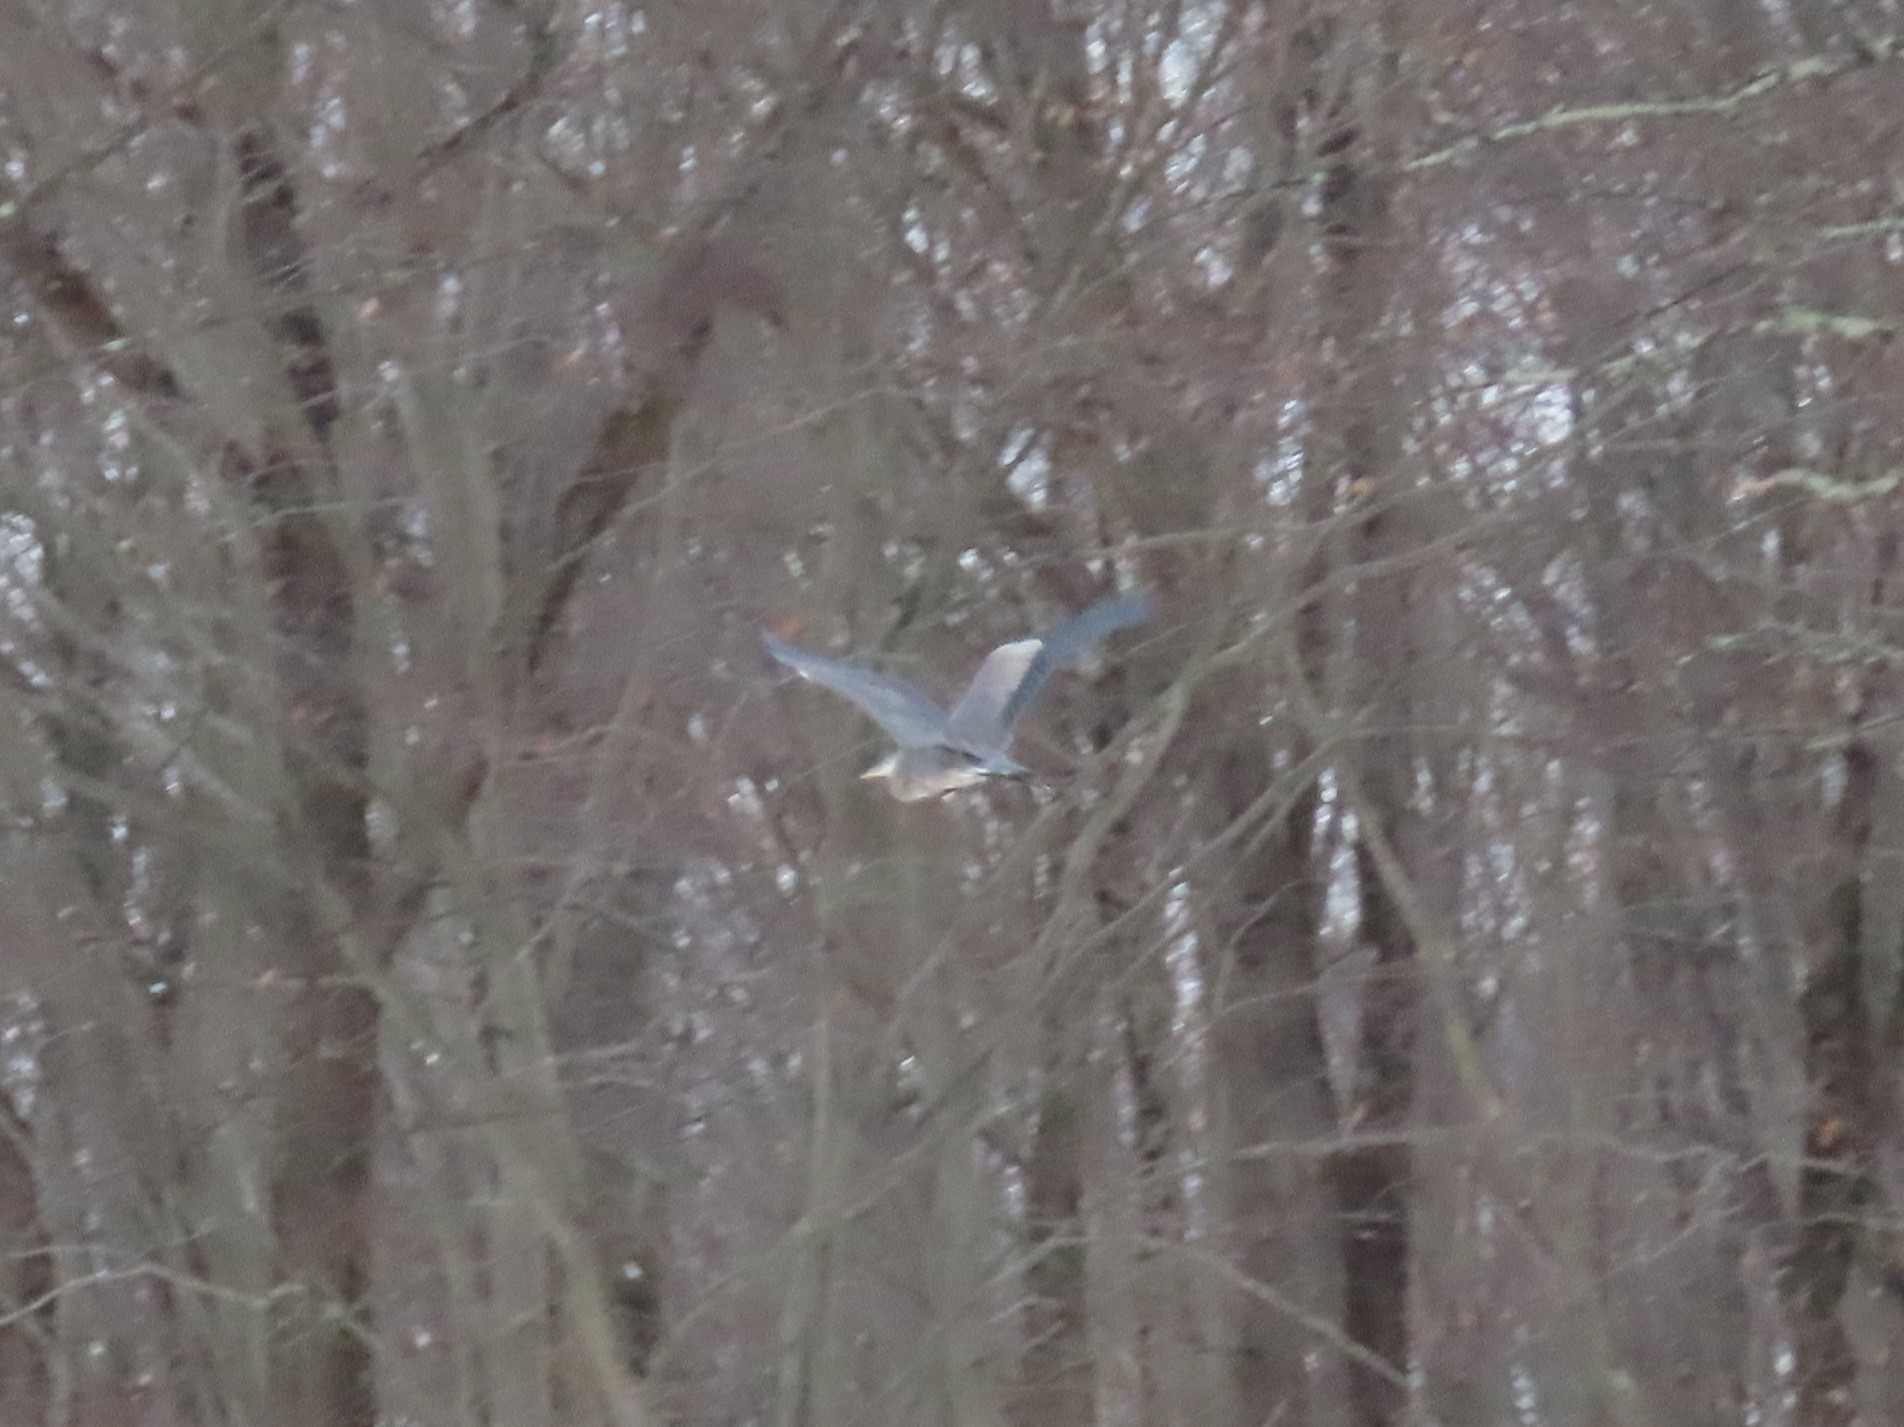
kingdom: Animalia
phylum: Chordata
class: Aves
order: Pelecaniformes
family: Ardeidae
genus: Ardea
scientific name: Ardea herodias
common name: Great blue heron
